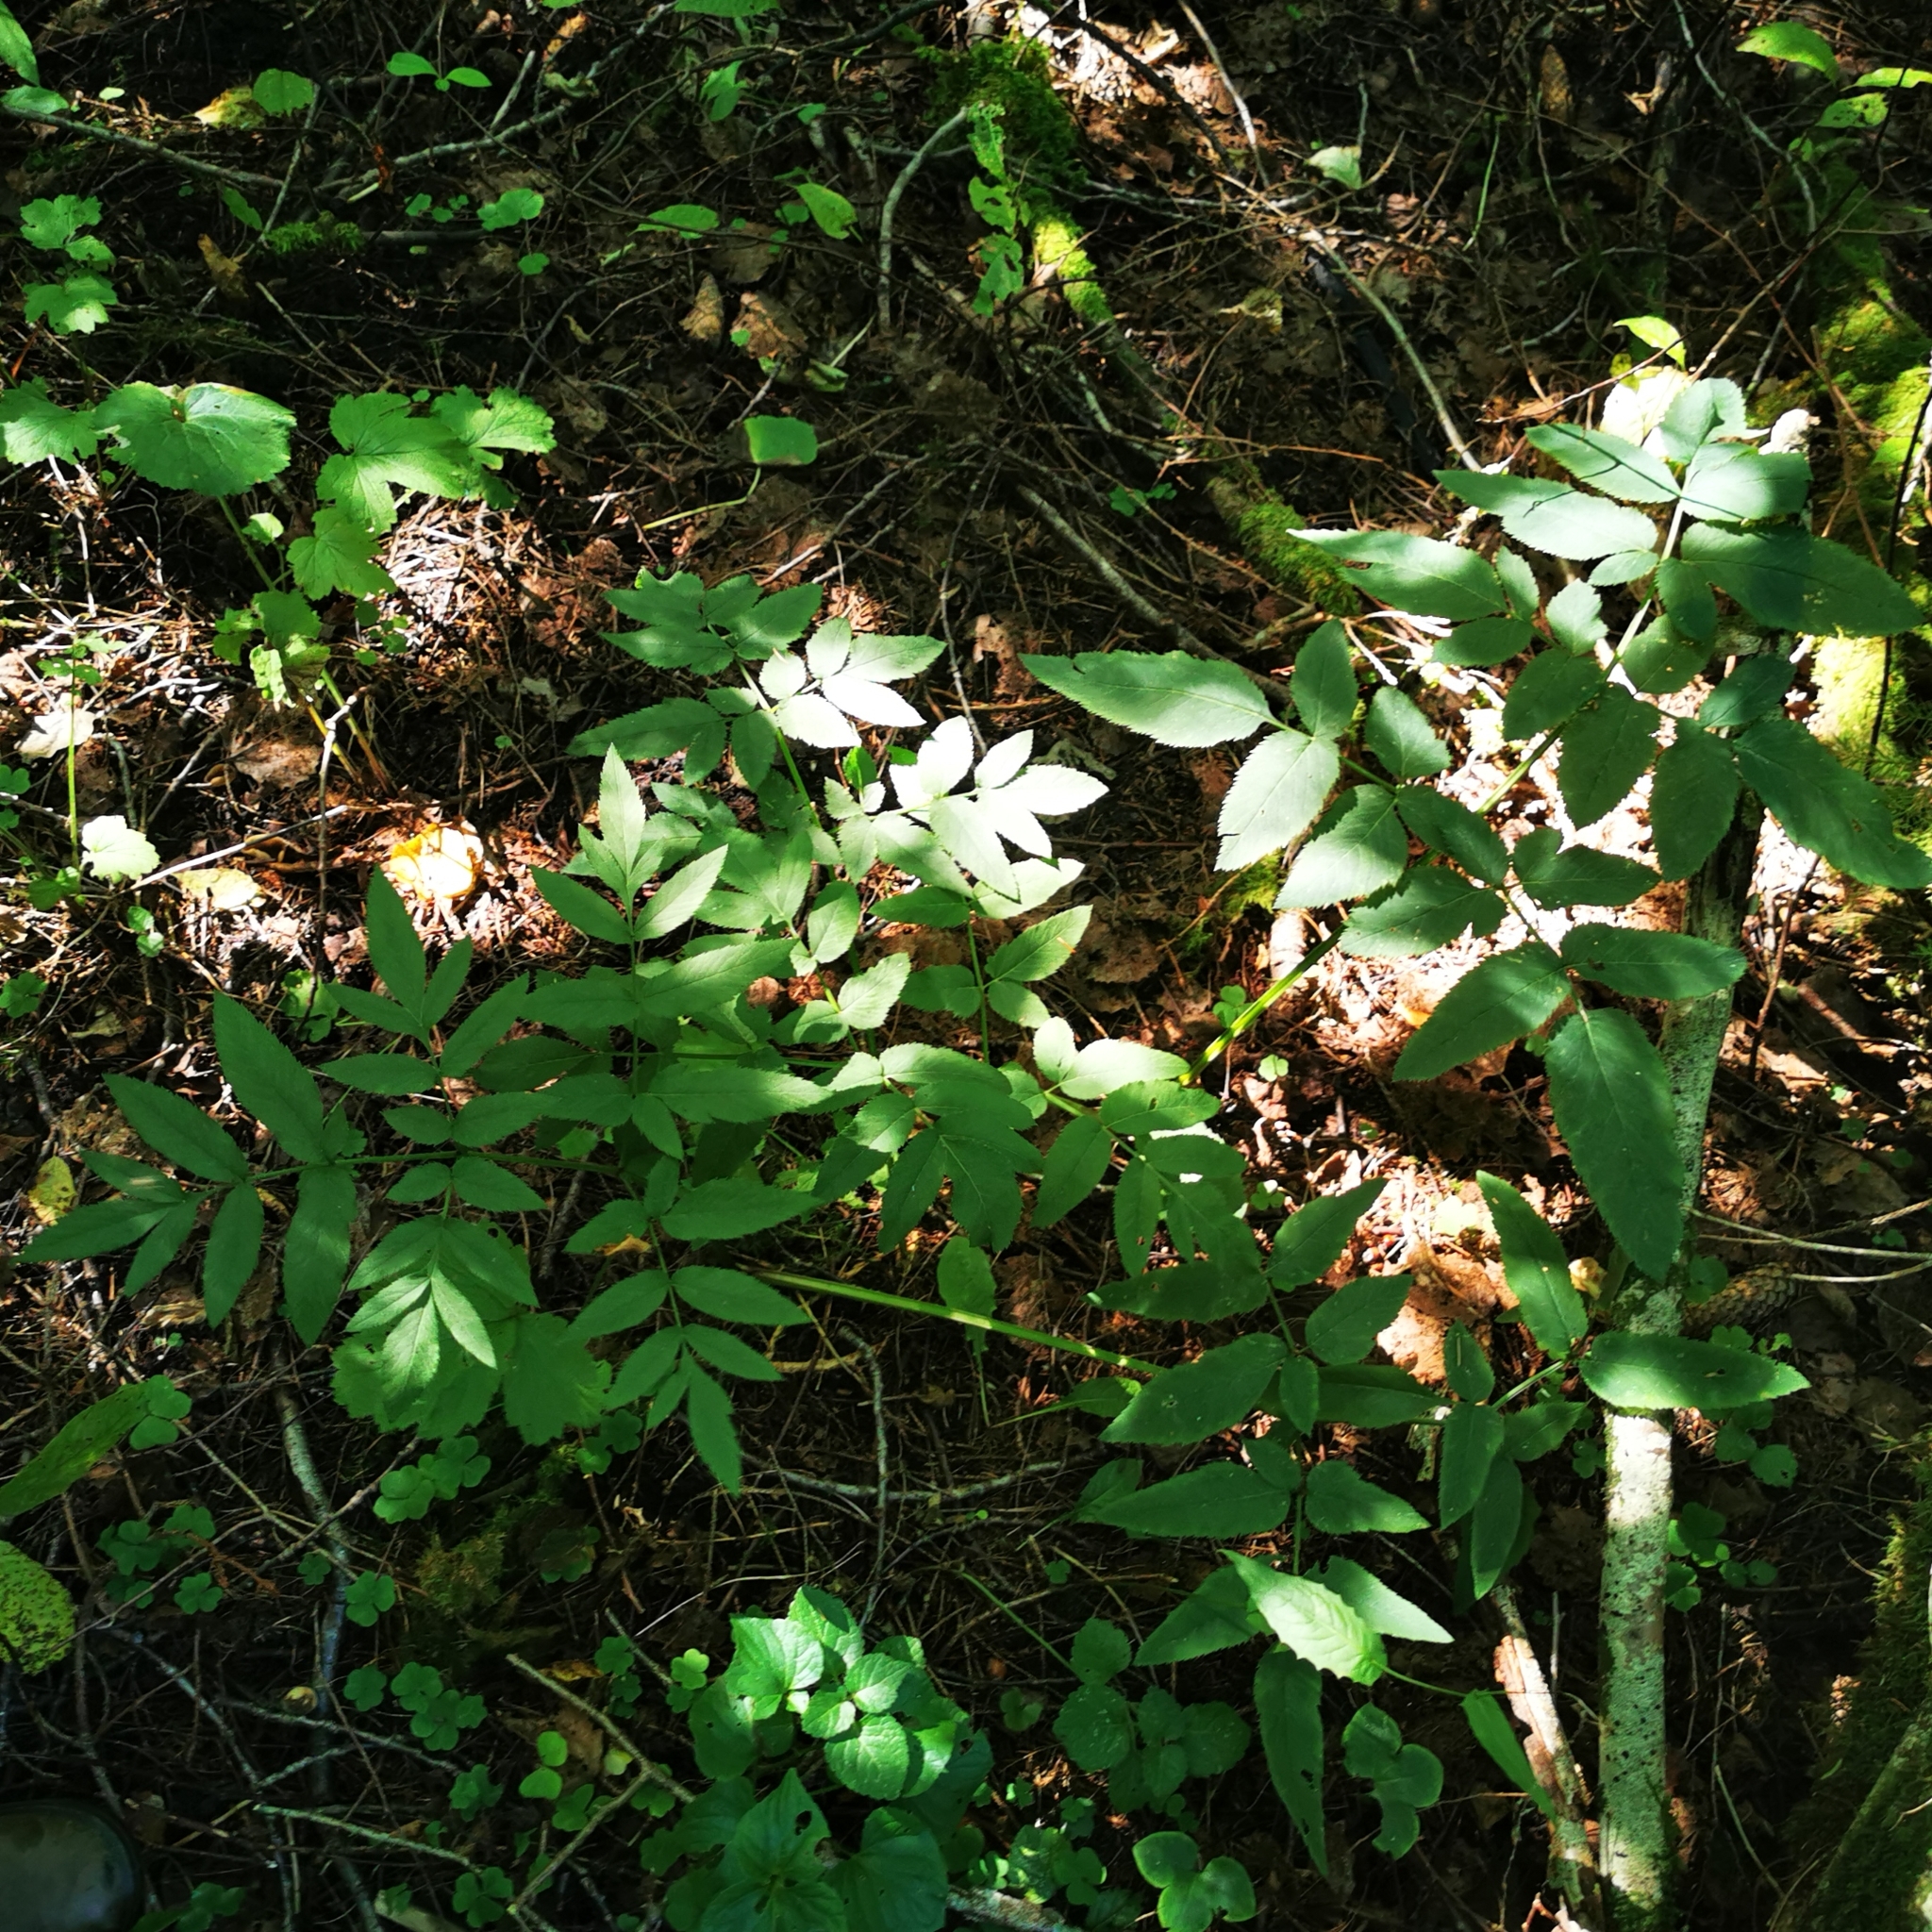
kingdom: Plantae
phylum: Tracheophyta
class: Magnoliopsida
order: Apiales
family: Apiaceae
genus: Angelica
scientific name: Angelica sylvestris
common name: Wild angelica
